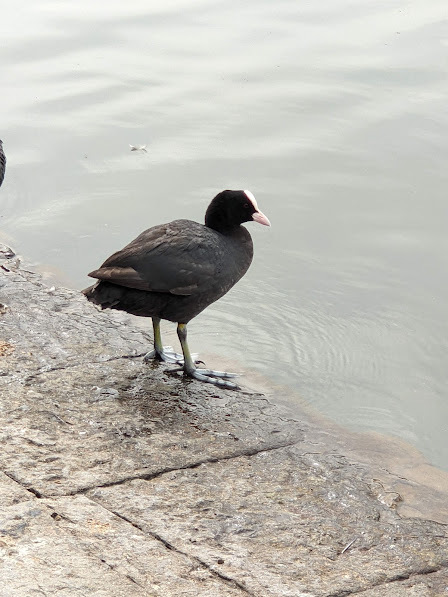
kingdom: Animalia
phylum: Chordata
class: Aves
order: Gruiformes
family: Rallidae
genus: Fulica
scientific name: Fulica atra
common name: Eurasian coot
